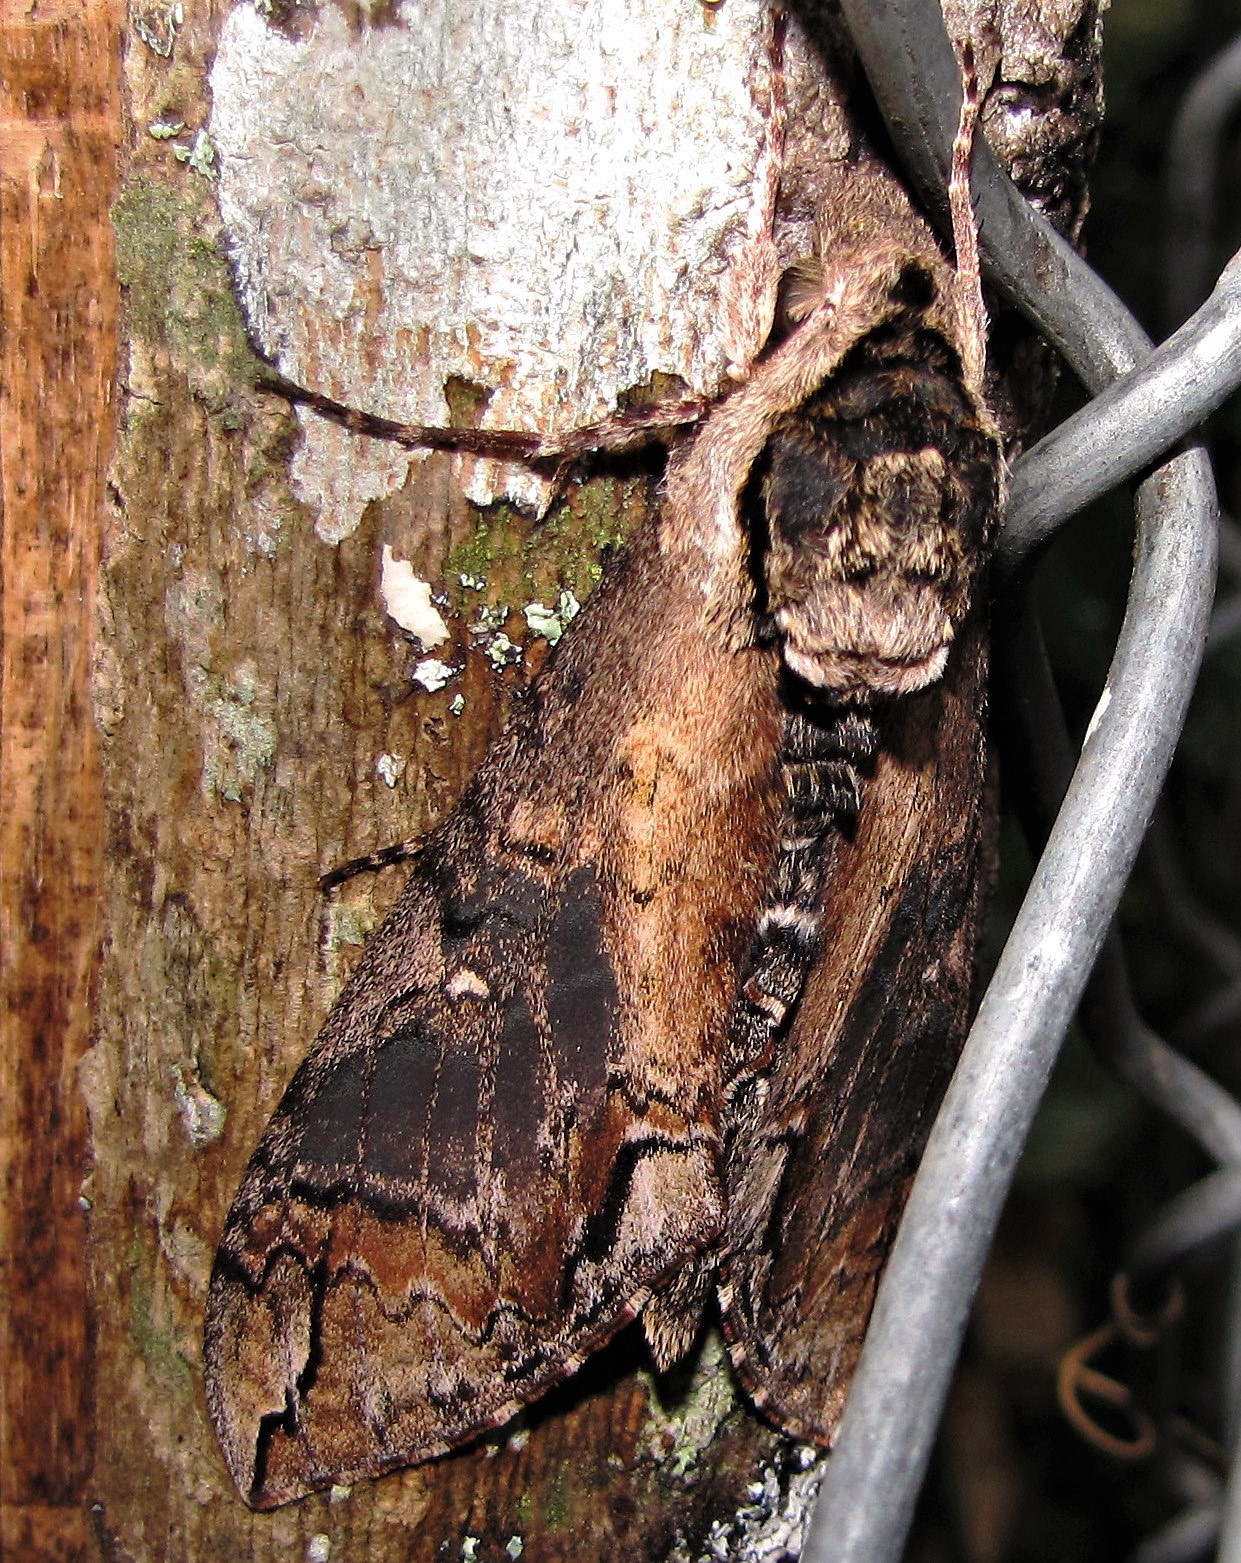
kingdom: Animalia
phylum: Arthropoda
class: Insecta
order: Lepidoptera
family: Sphingidae
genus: Manduca
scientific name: Manduca tucumana
